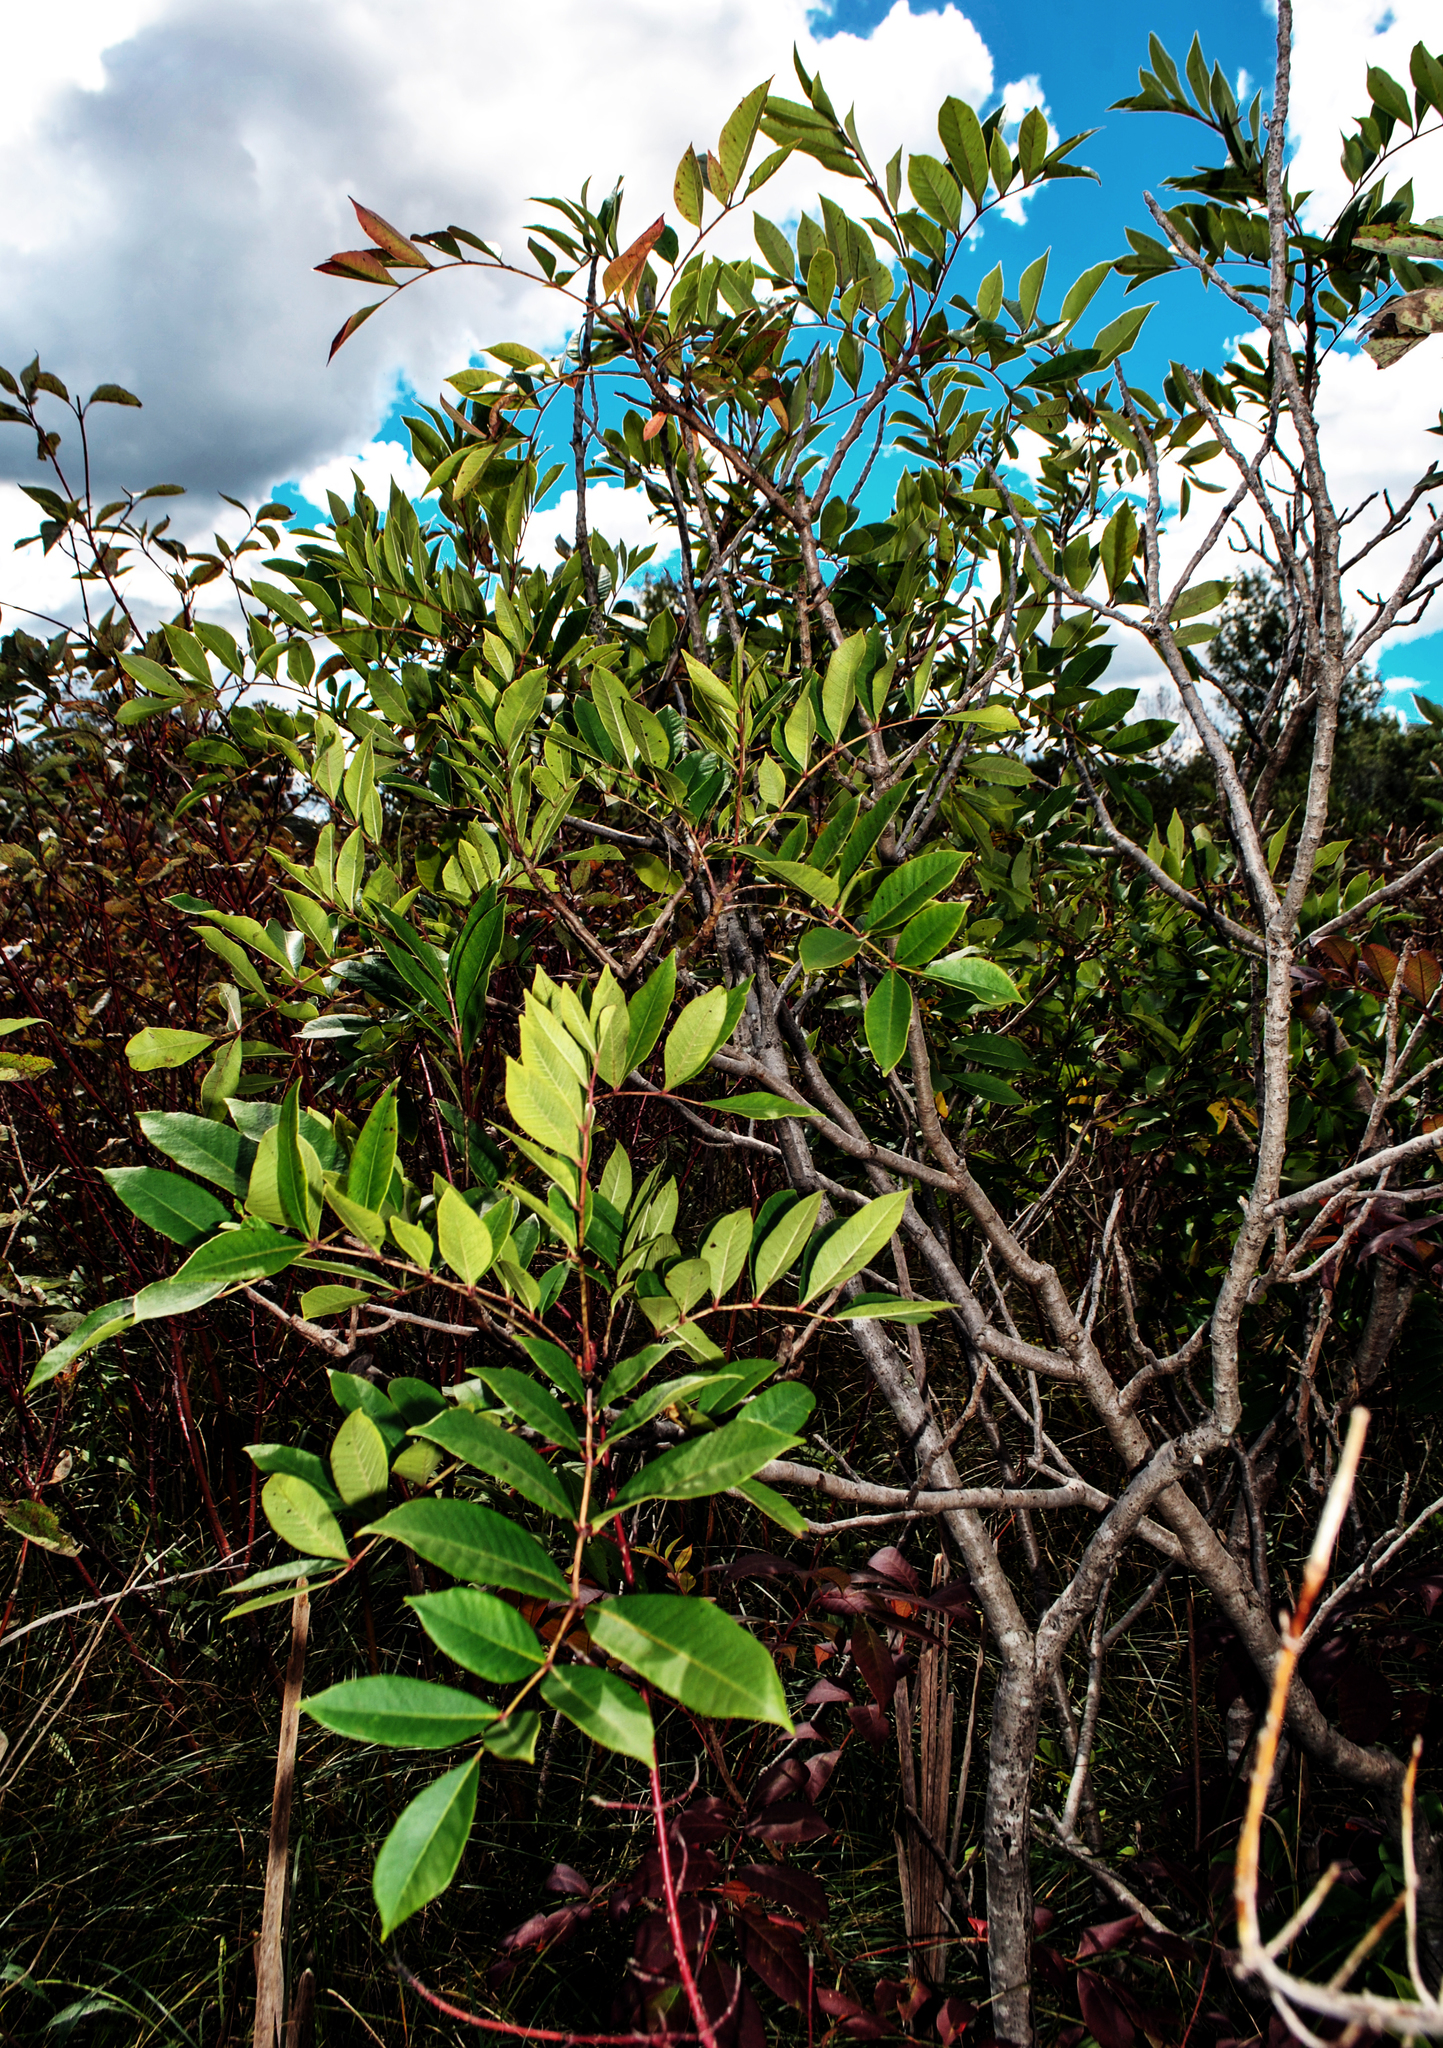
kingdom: Plantae
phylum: Tracheophyta
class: Magnoliopsida
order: Sapindales
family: Anacardiaceae
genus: Toxicodendron
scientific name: Toxicodendron vernix
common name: Poison sumac
